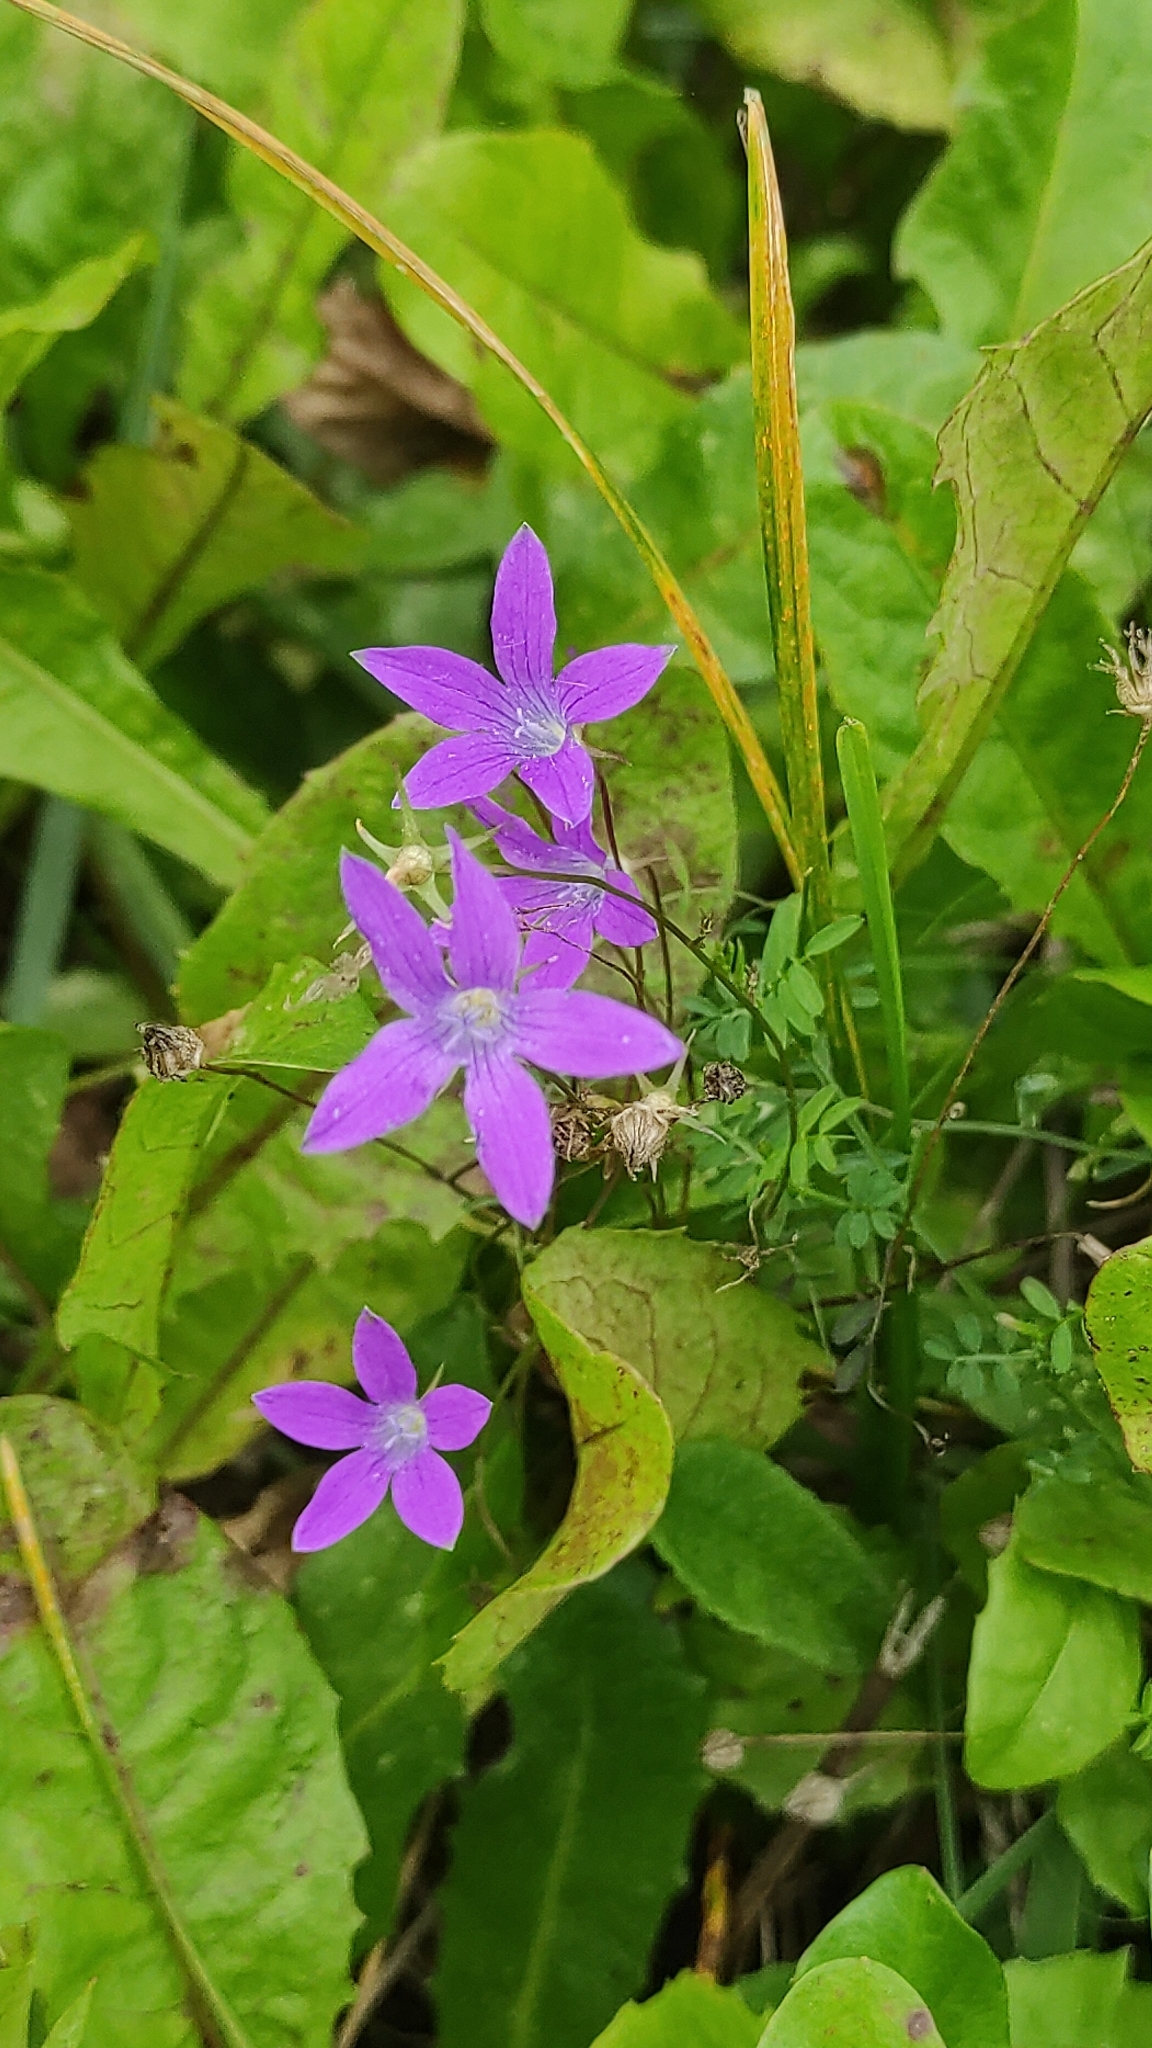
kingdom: Plantae
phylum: Tracheophyta
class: Magnoliopsida
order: Asterales
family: Campanulaceae
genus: Campanula
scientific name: Campanula patula
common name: Spreading bellflower
